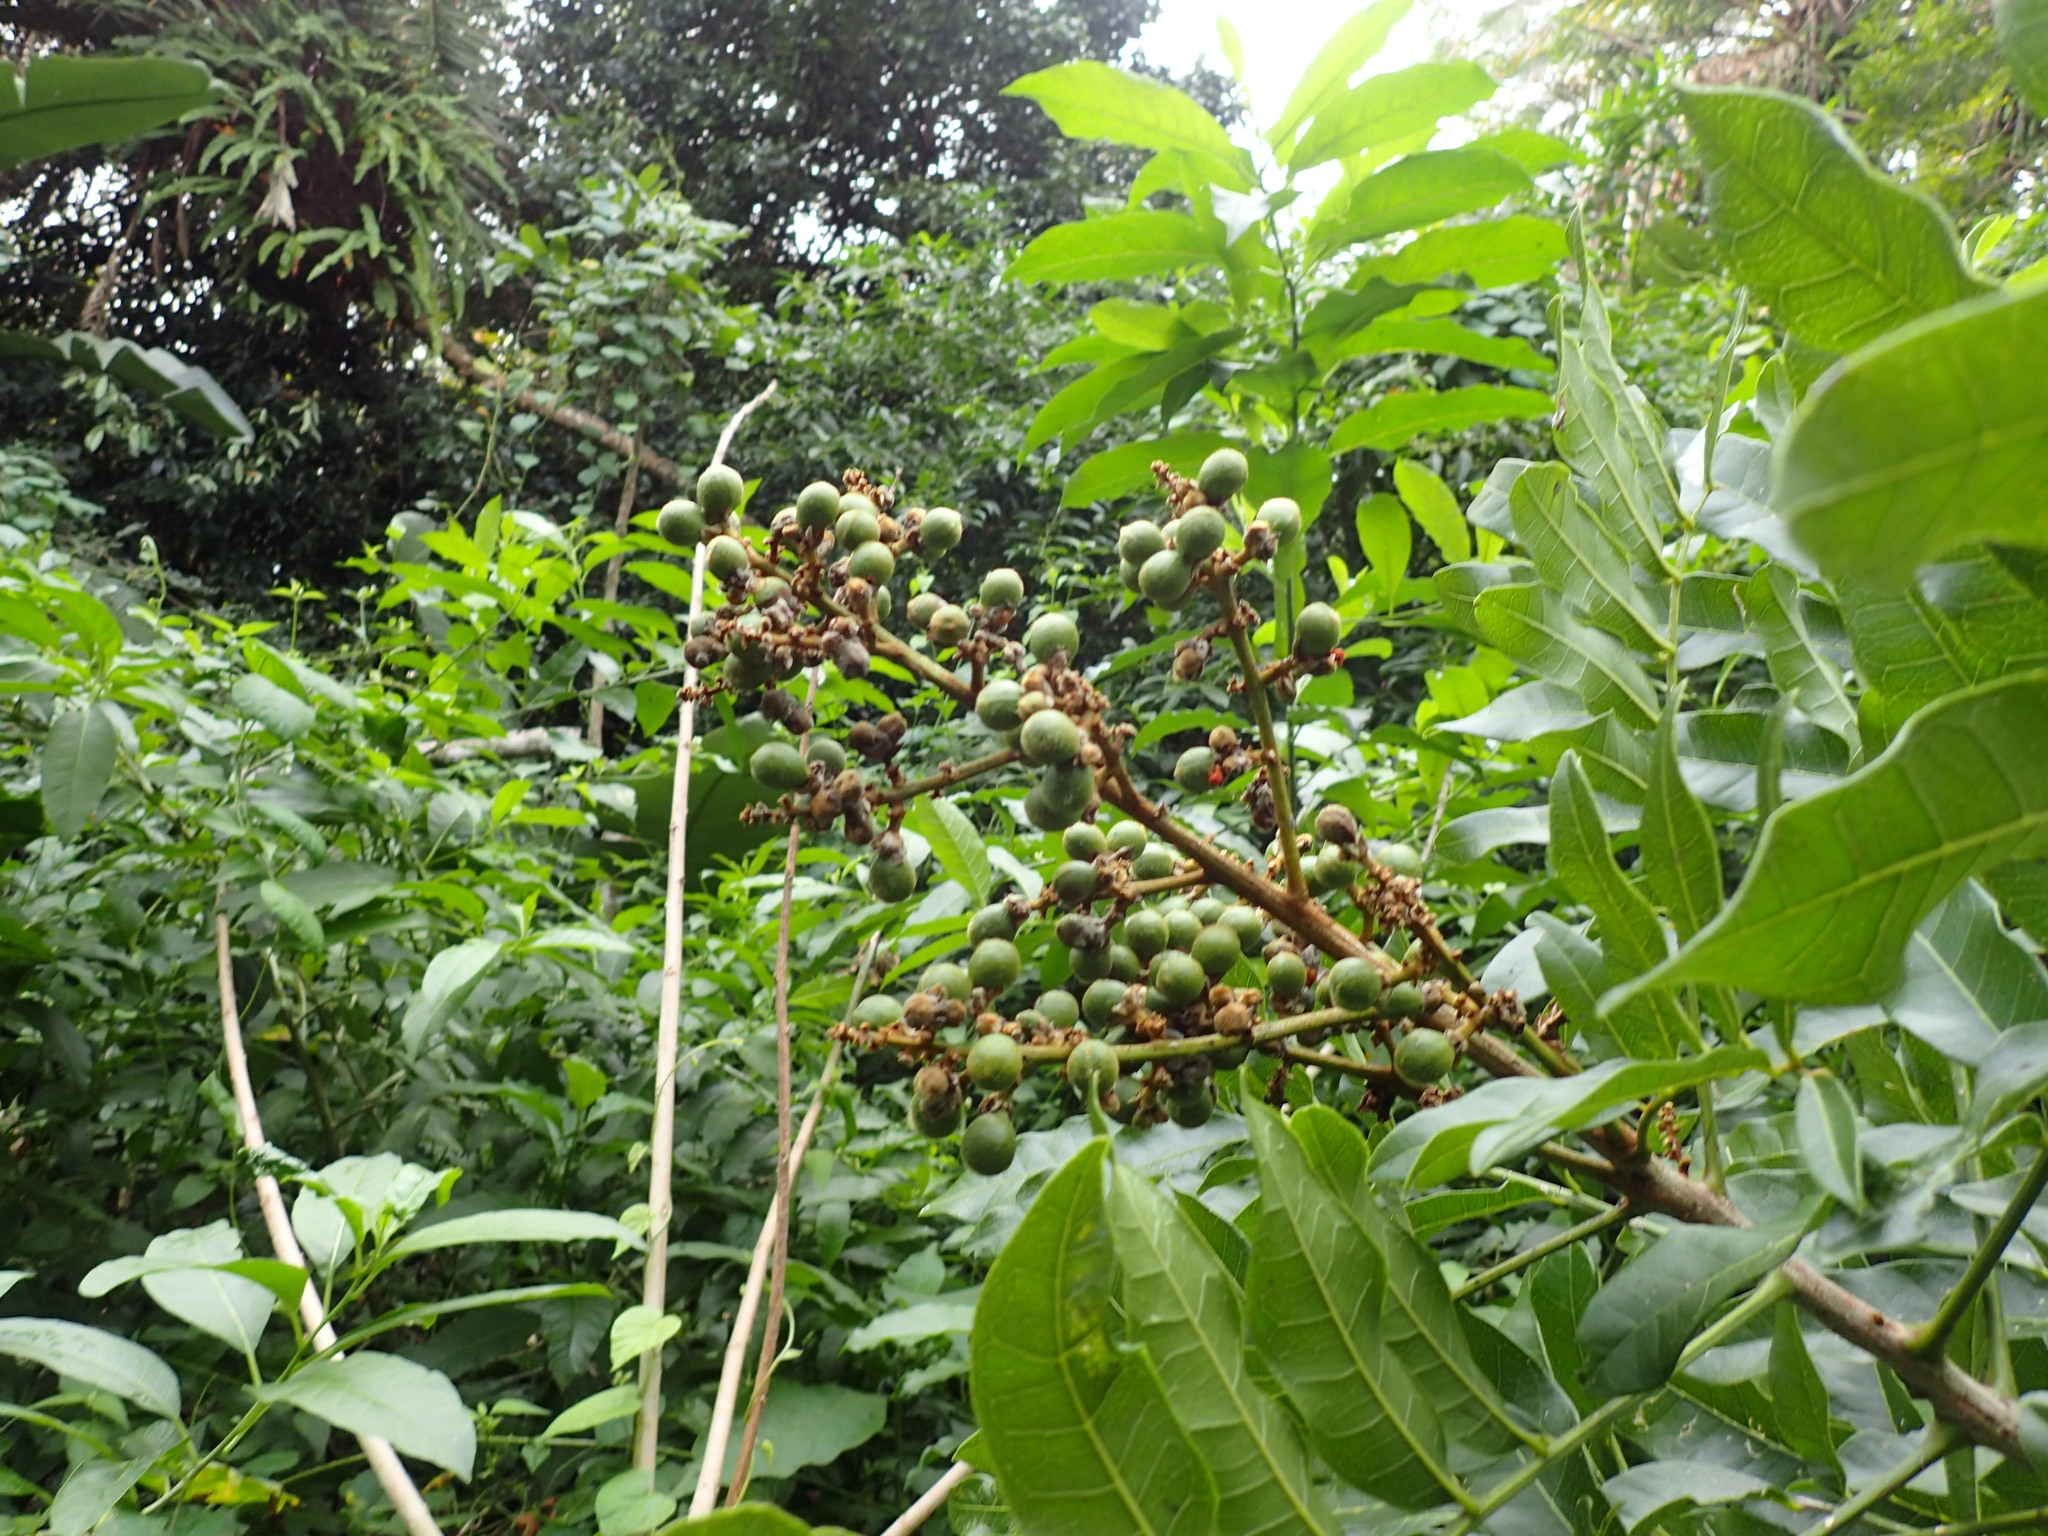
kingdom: Plantae
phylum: Tracheophyta
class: Magnoliopsida
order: Sapindales
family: Sapindaceae
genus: Deinbollia
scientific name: Deinbollia oblongifolia
